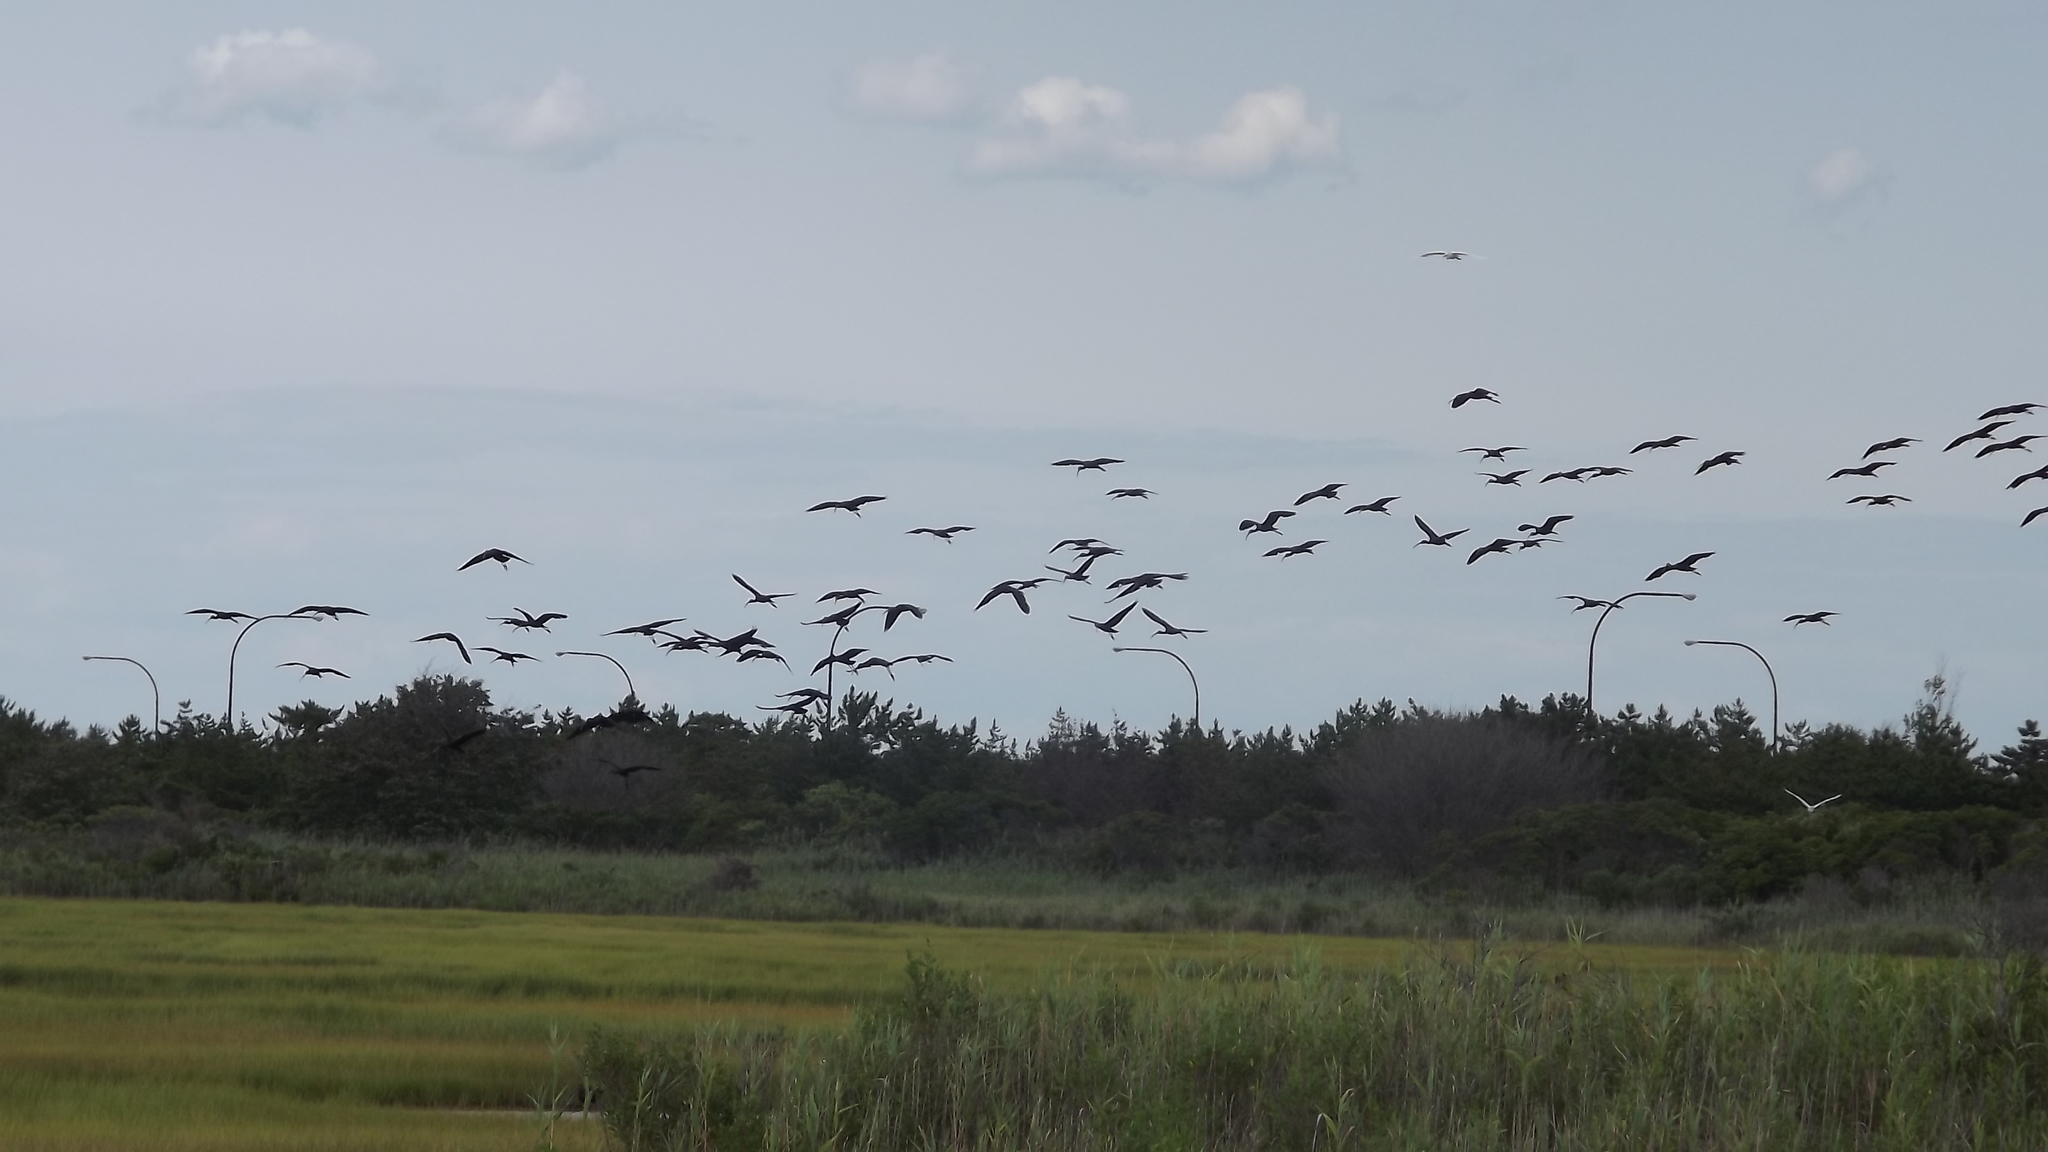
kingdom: Animalia
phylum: Chordata
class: Aves
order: Pelecaniformes
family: Threskiornithidae
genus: Plegadis
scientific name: Plegadis falcinellus
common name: Glossy ibis
